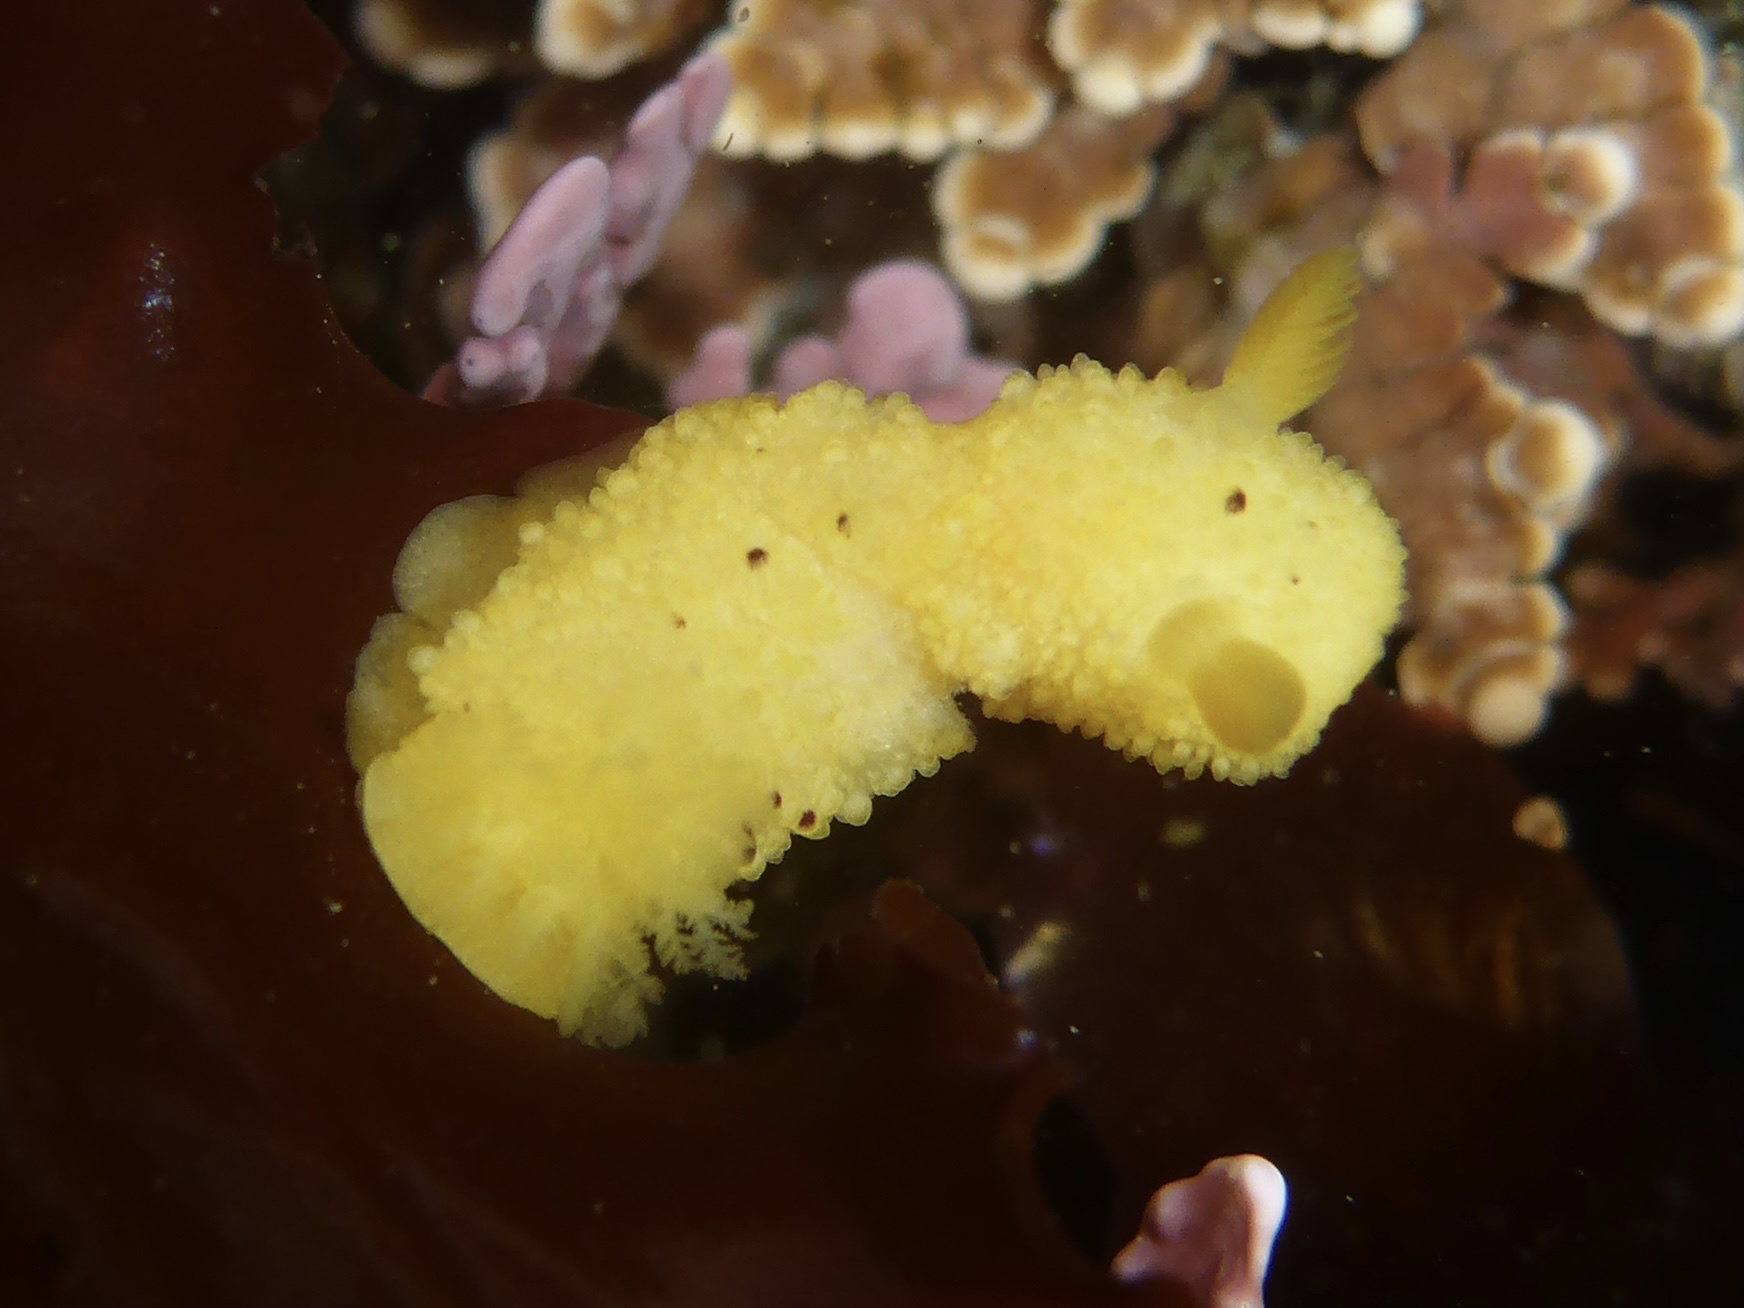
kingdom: Animalia
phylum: Mollusca
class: Gastropoda
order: Nudibranchia
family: Dorididae
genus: Doris
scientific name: Doris montereyensis
